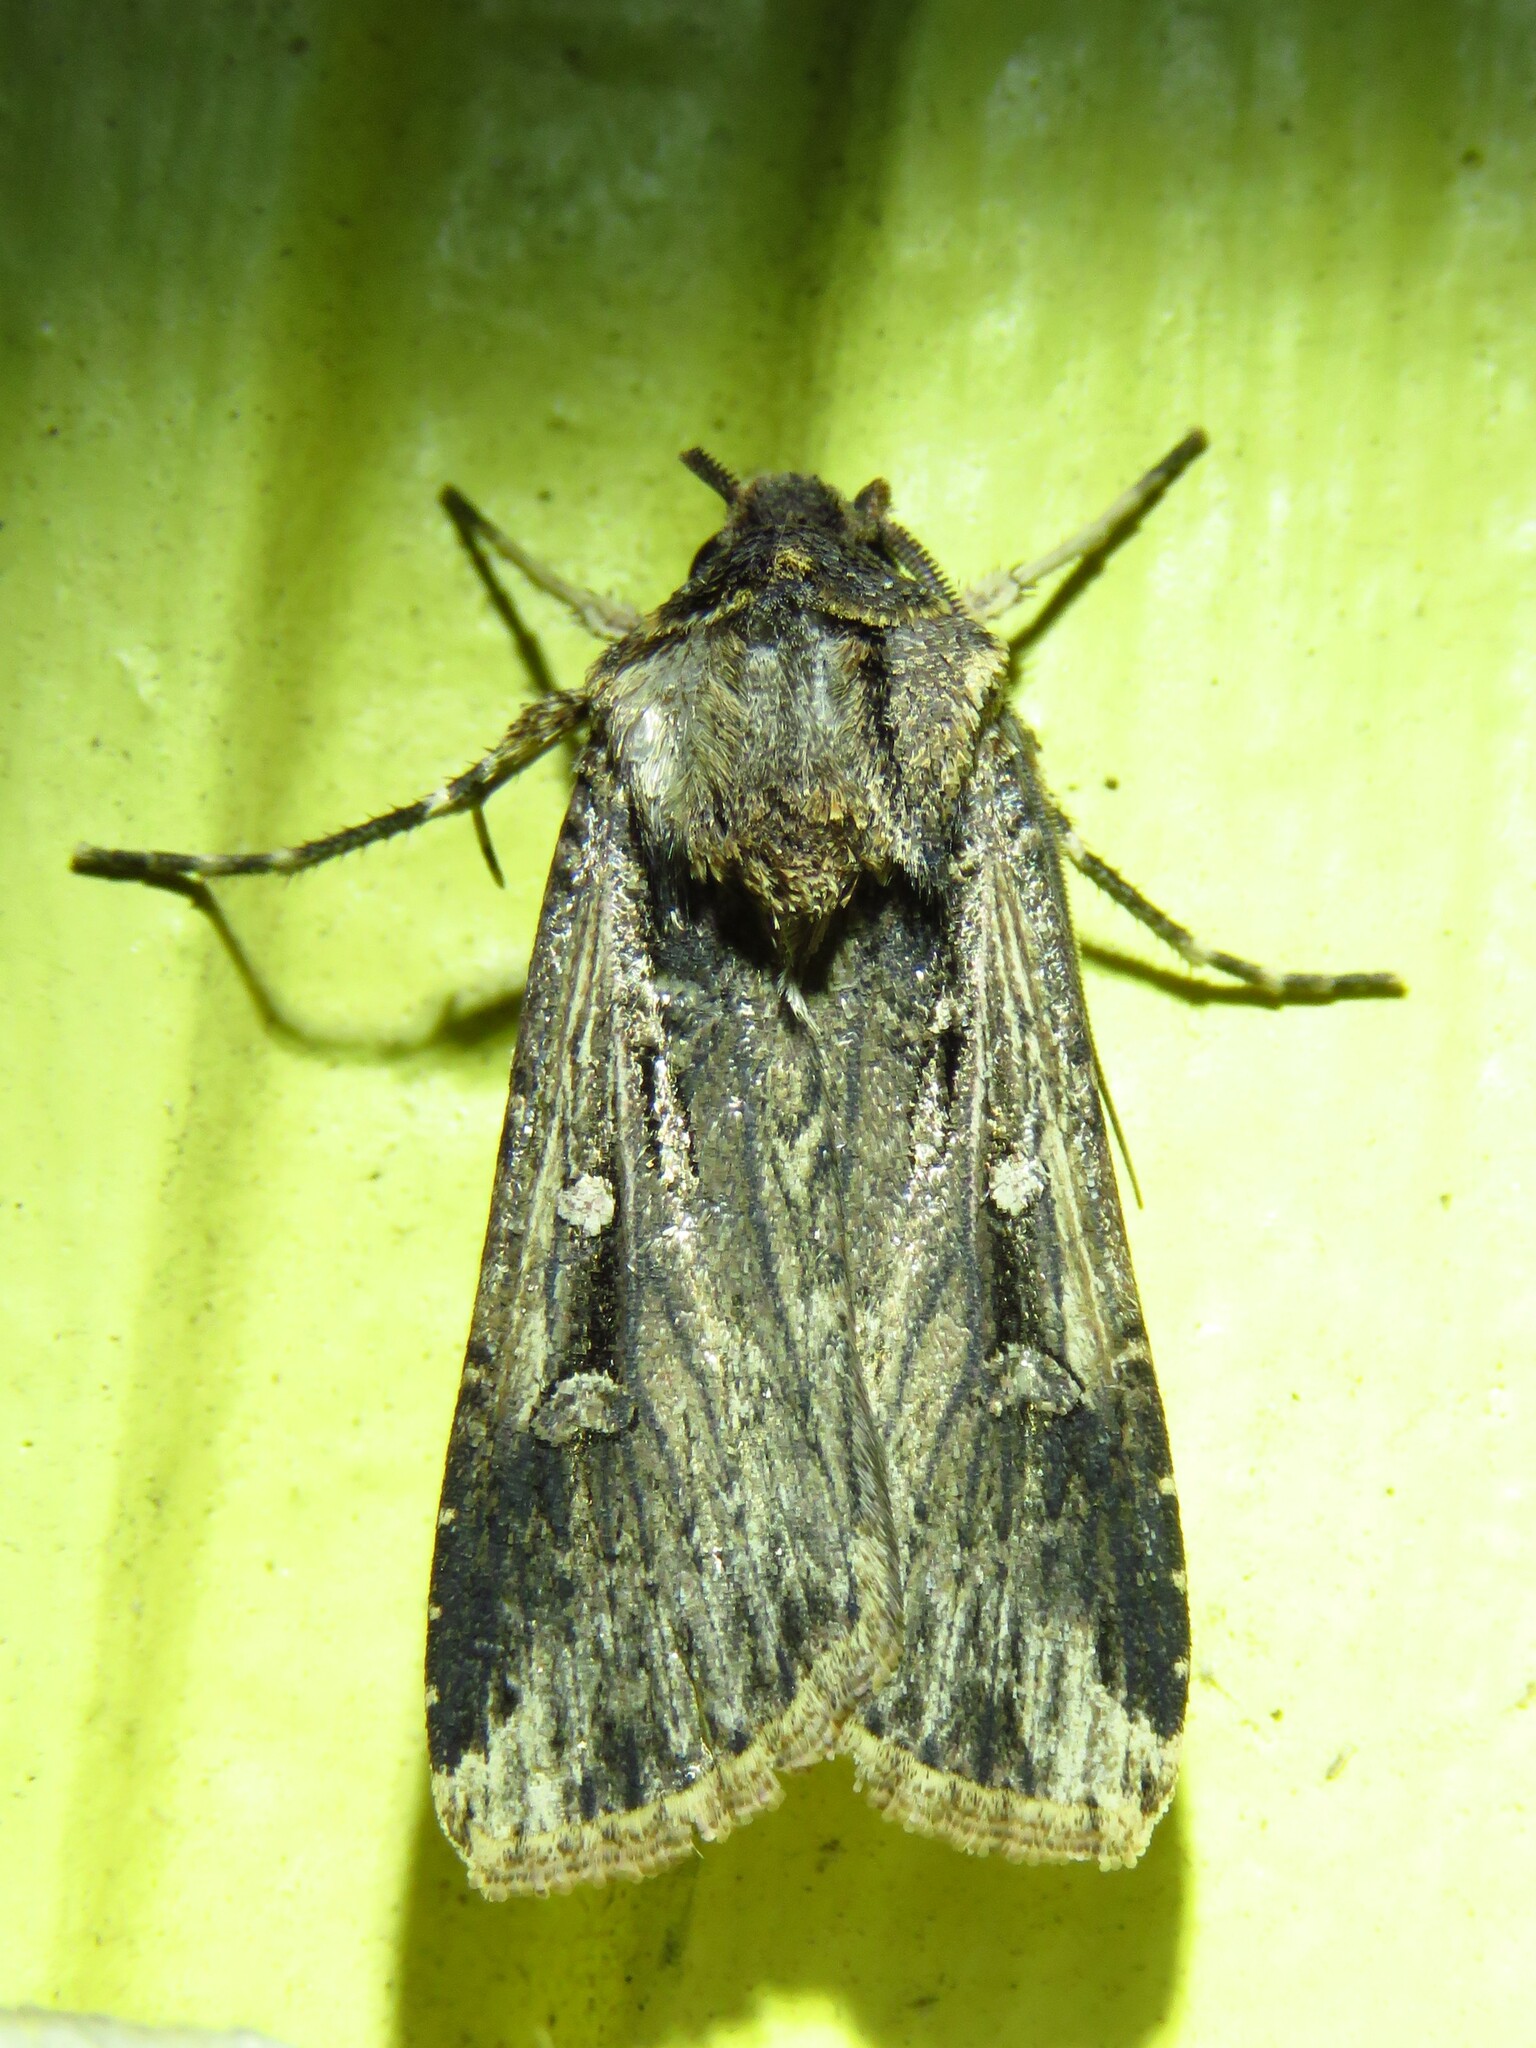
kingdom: Animalia
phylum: Arthropoda
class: Insecta
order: Lepidoptera
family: Noctuidae
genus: Feltia
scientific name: Feltia subterranea
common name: Granulate cutworm
